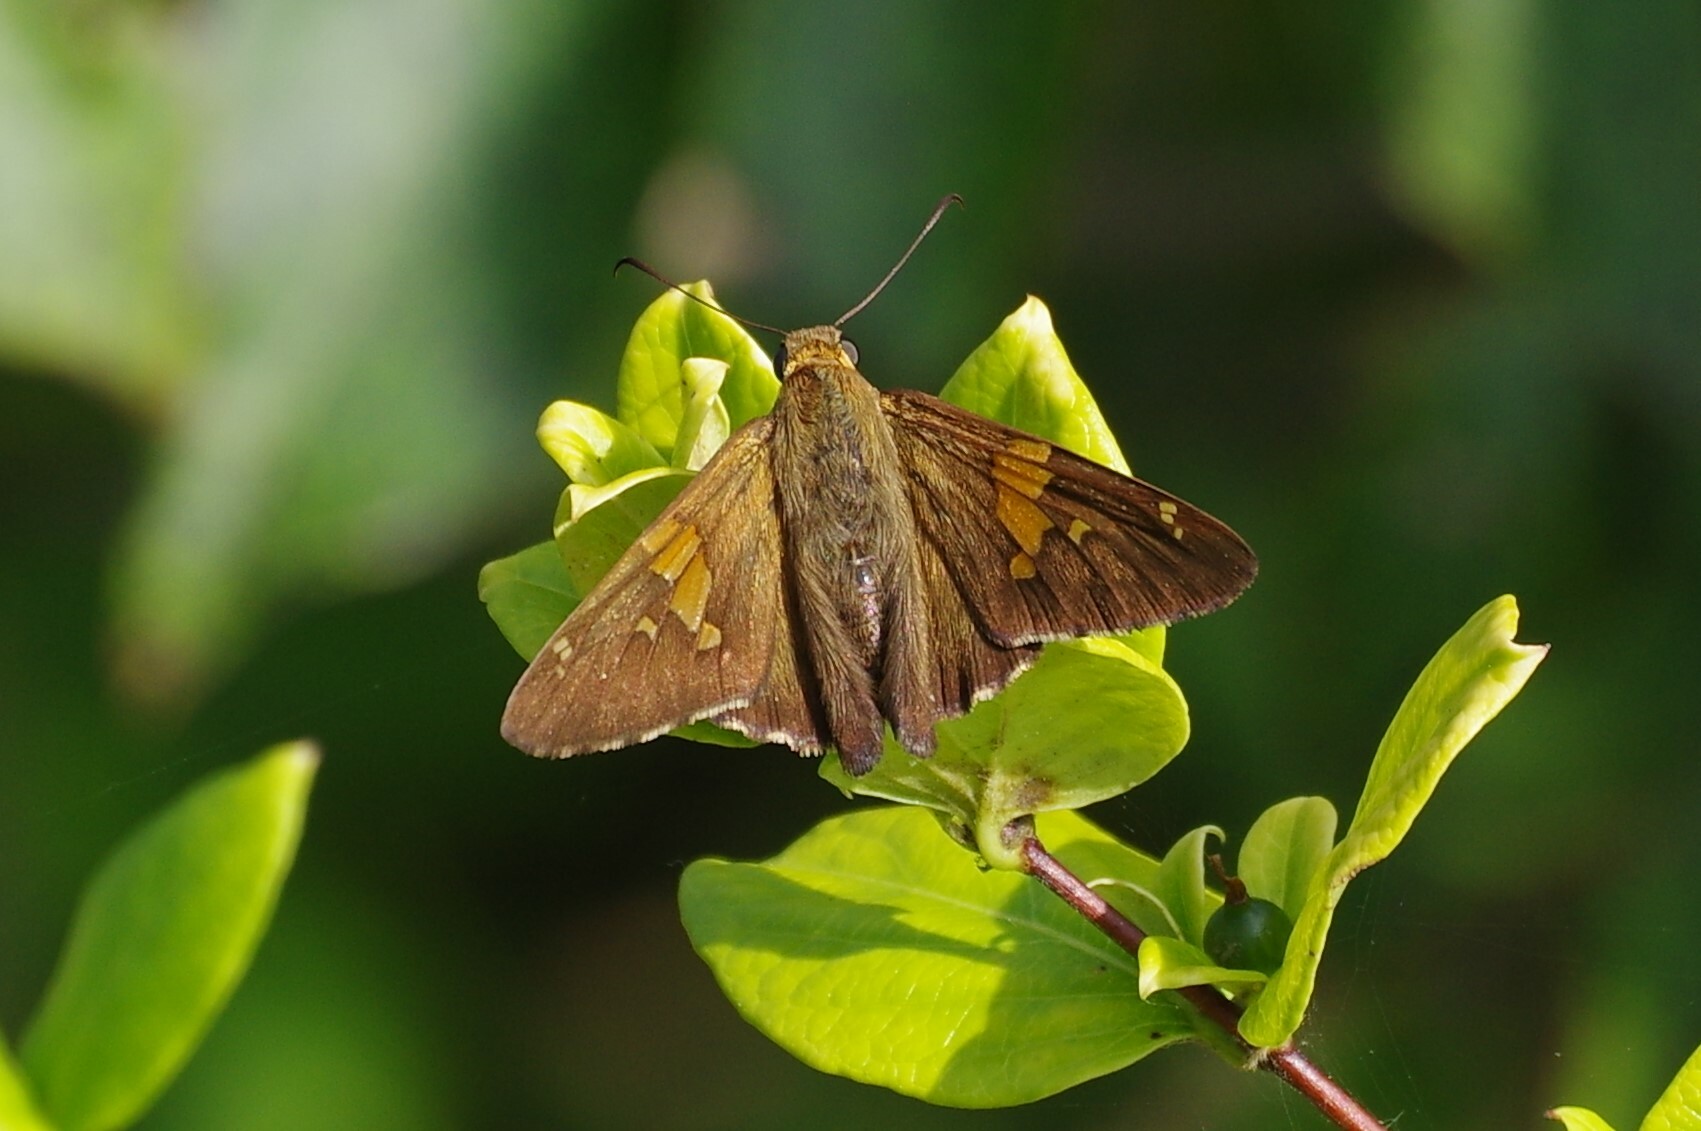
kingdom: Animalia
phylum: Arthropoda
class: Insecta
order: Lepidoptera
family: Hesperiidae
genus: Epargyreus
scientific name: Epargyreus clarus
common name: Silver-spotted skipper
